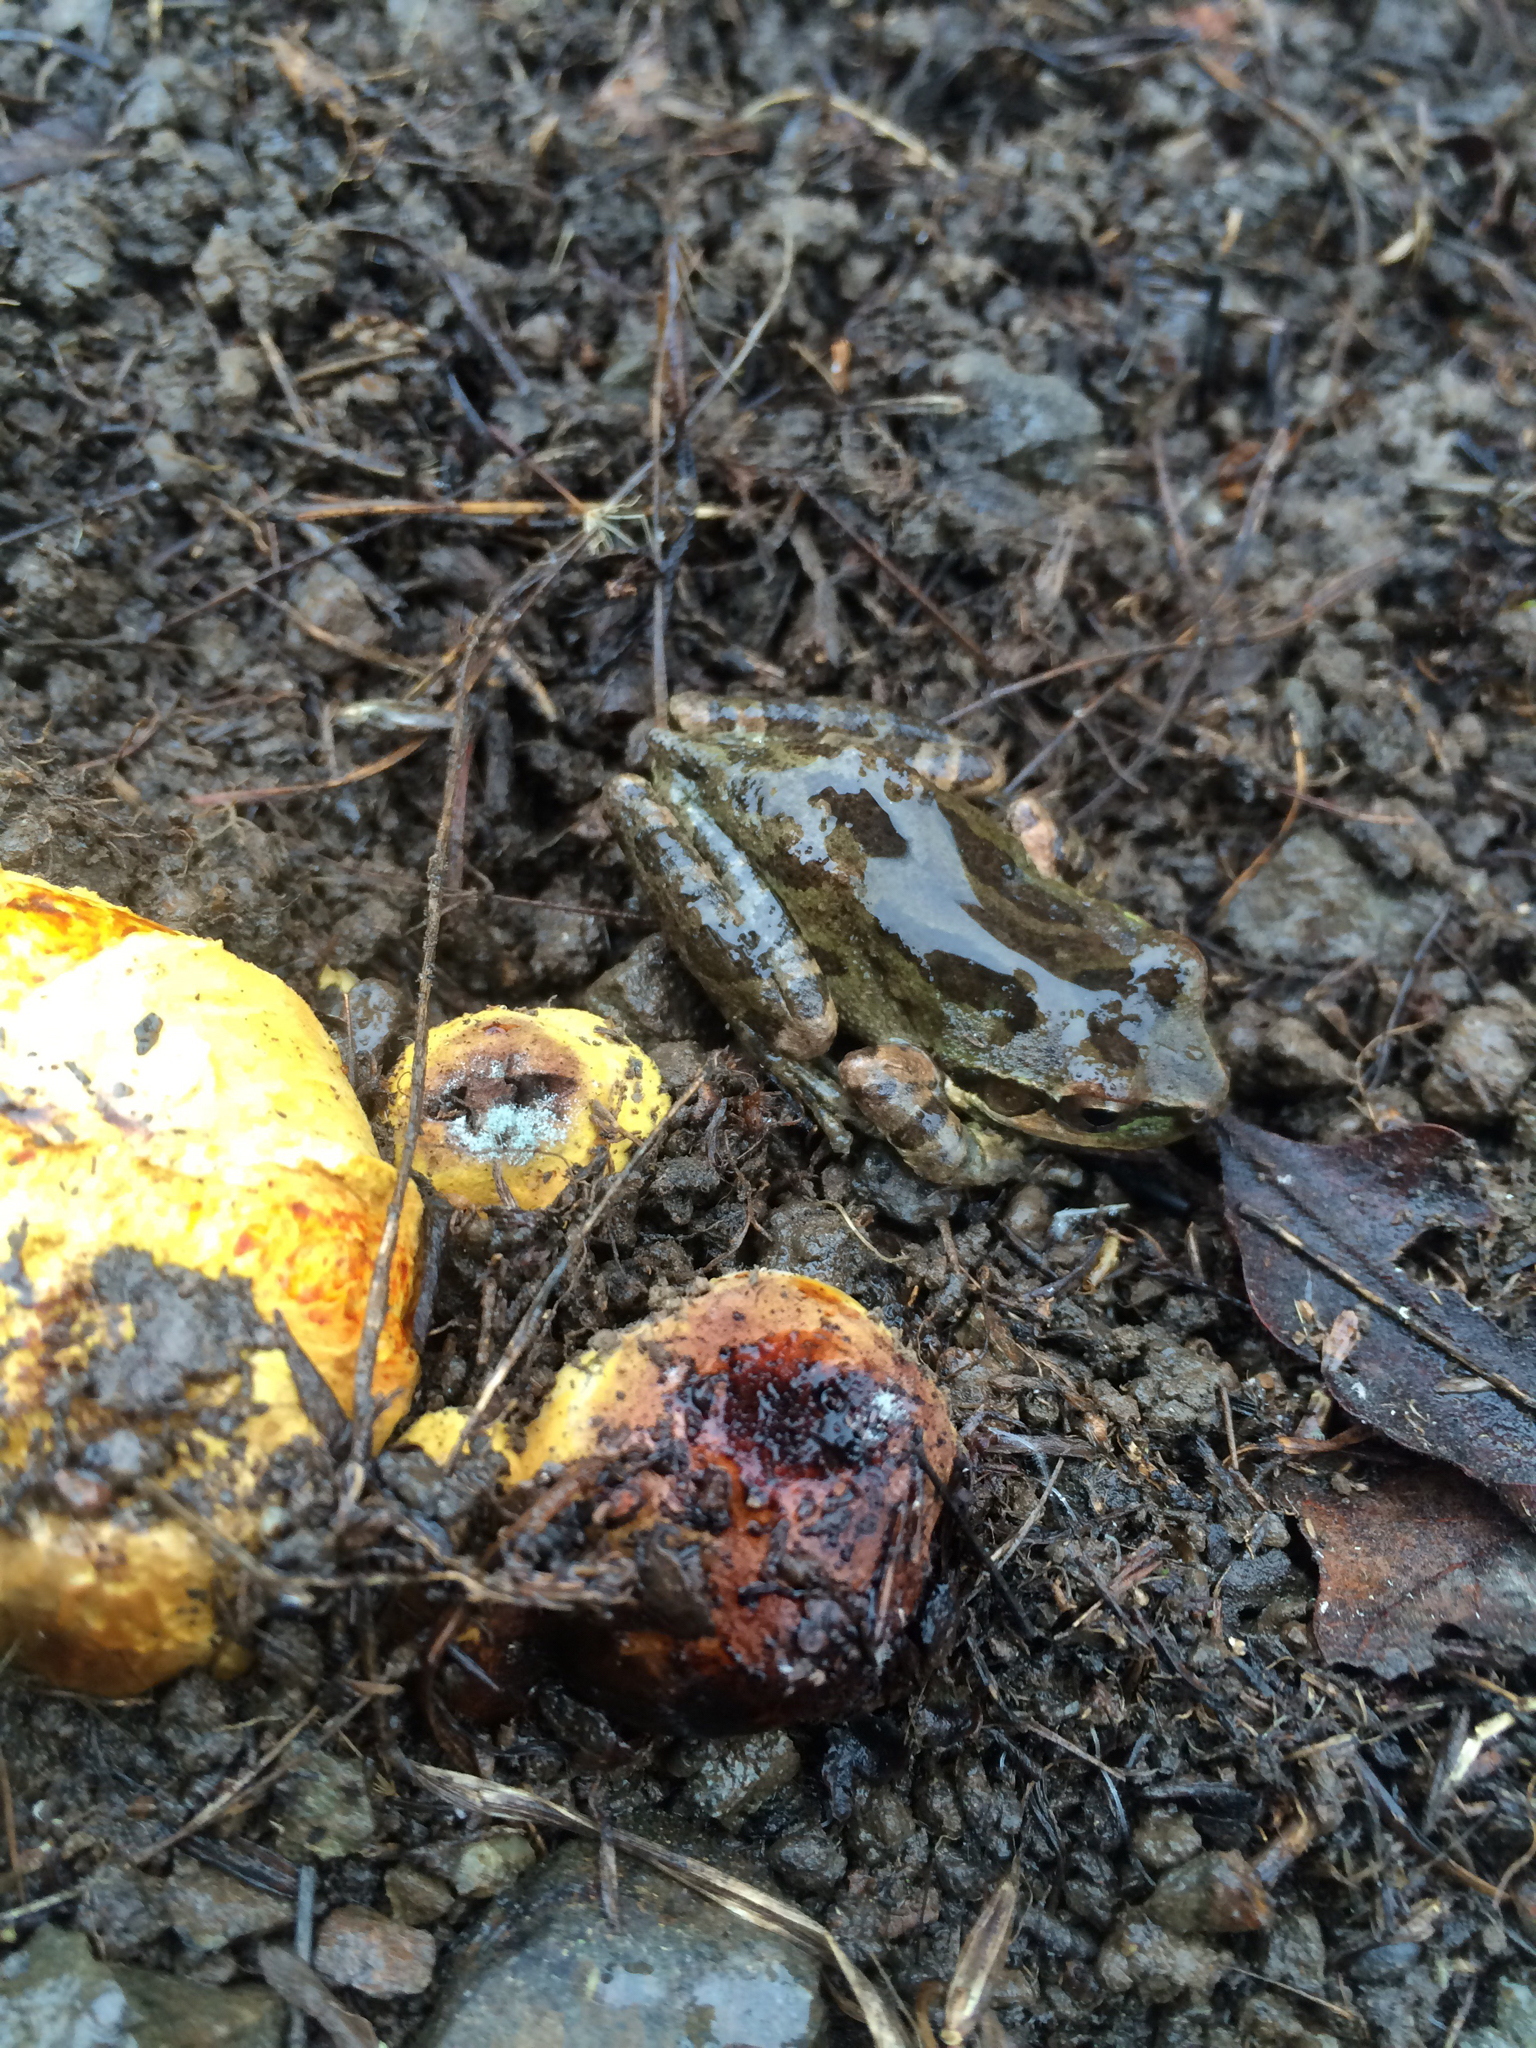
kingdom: Animalia
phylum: Chordata
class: Amphibia
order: Anura
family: Hylidae
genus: Pseudacris
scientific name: Pseudacris regilla
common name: Pacific chorus frog
